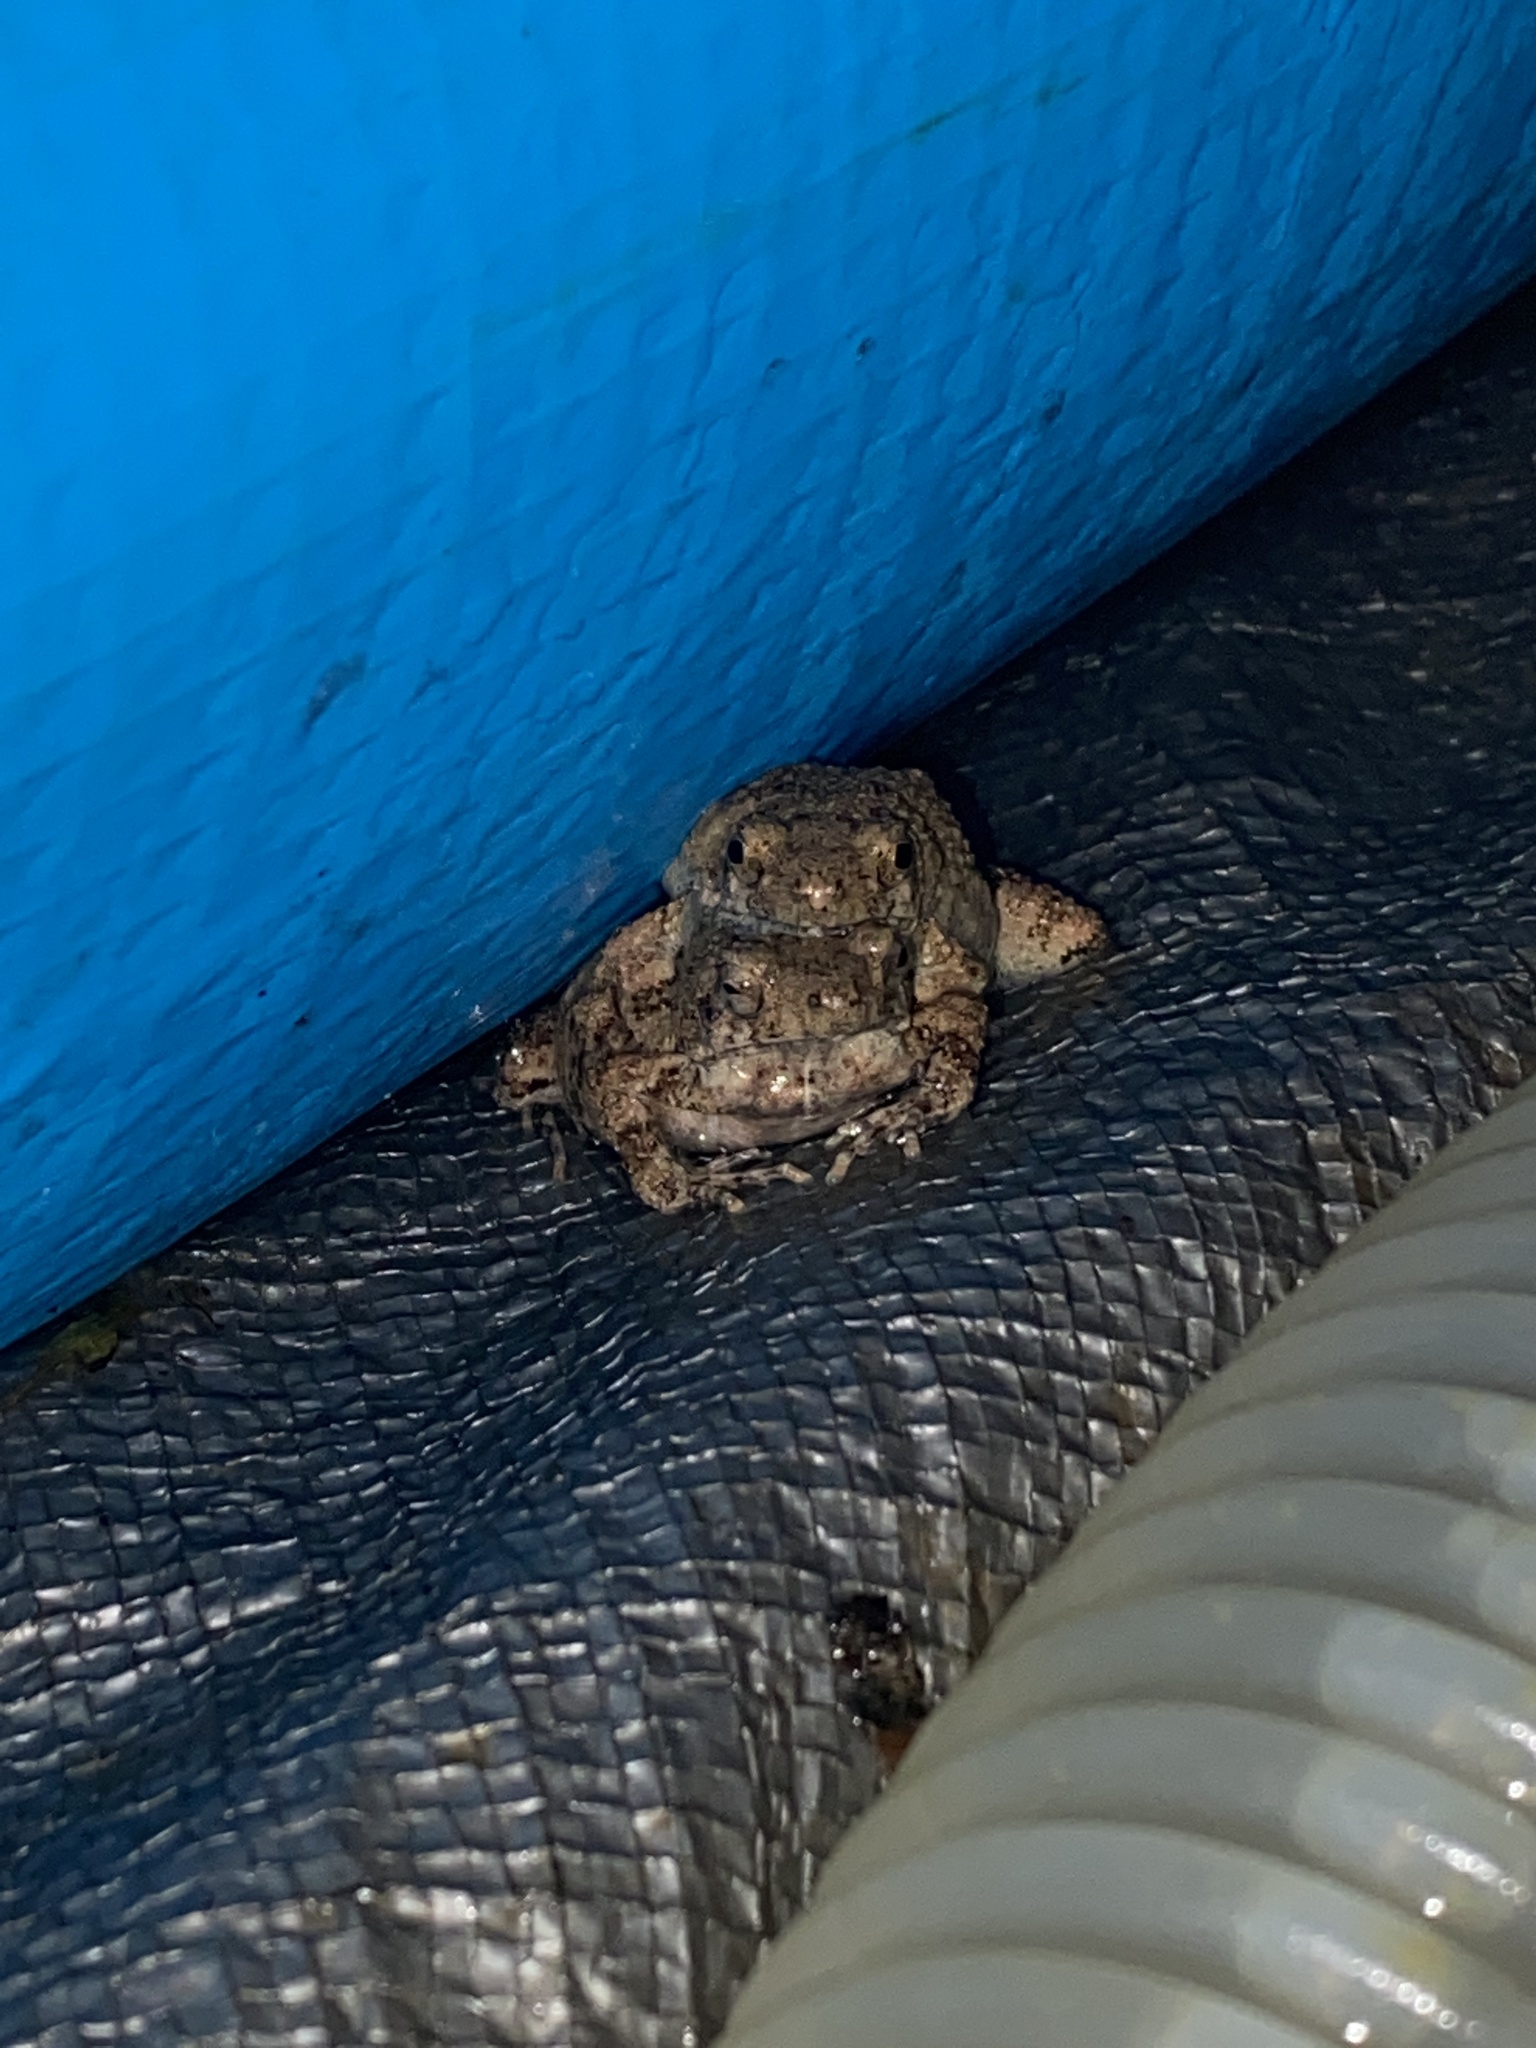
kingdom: Animalia
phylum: Chordata
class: Amphibia
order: Anura
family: Leptodactylidae
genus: Engystomops
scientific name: Engystomops pustulosus
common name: Tungara frog
